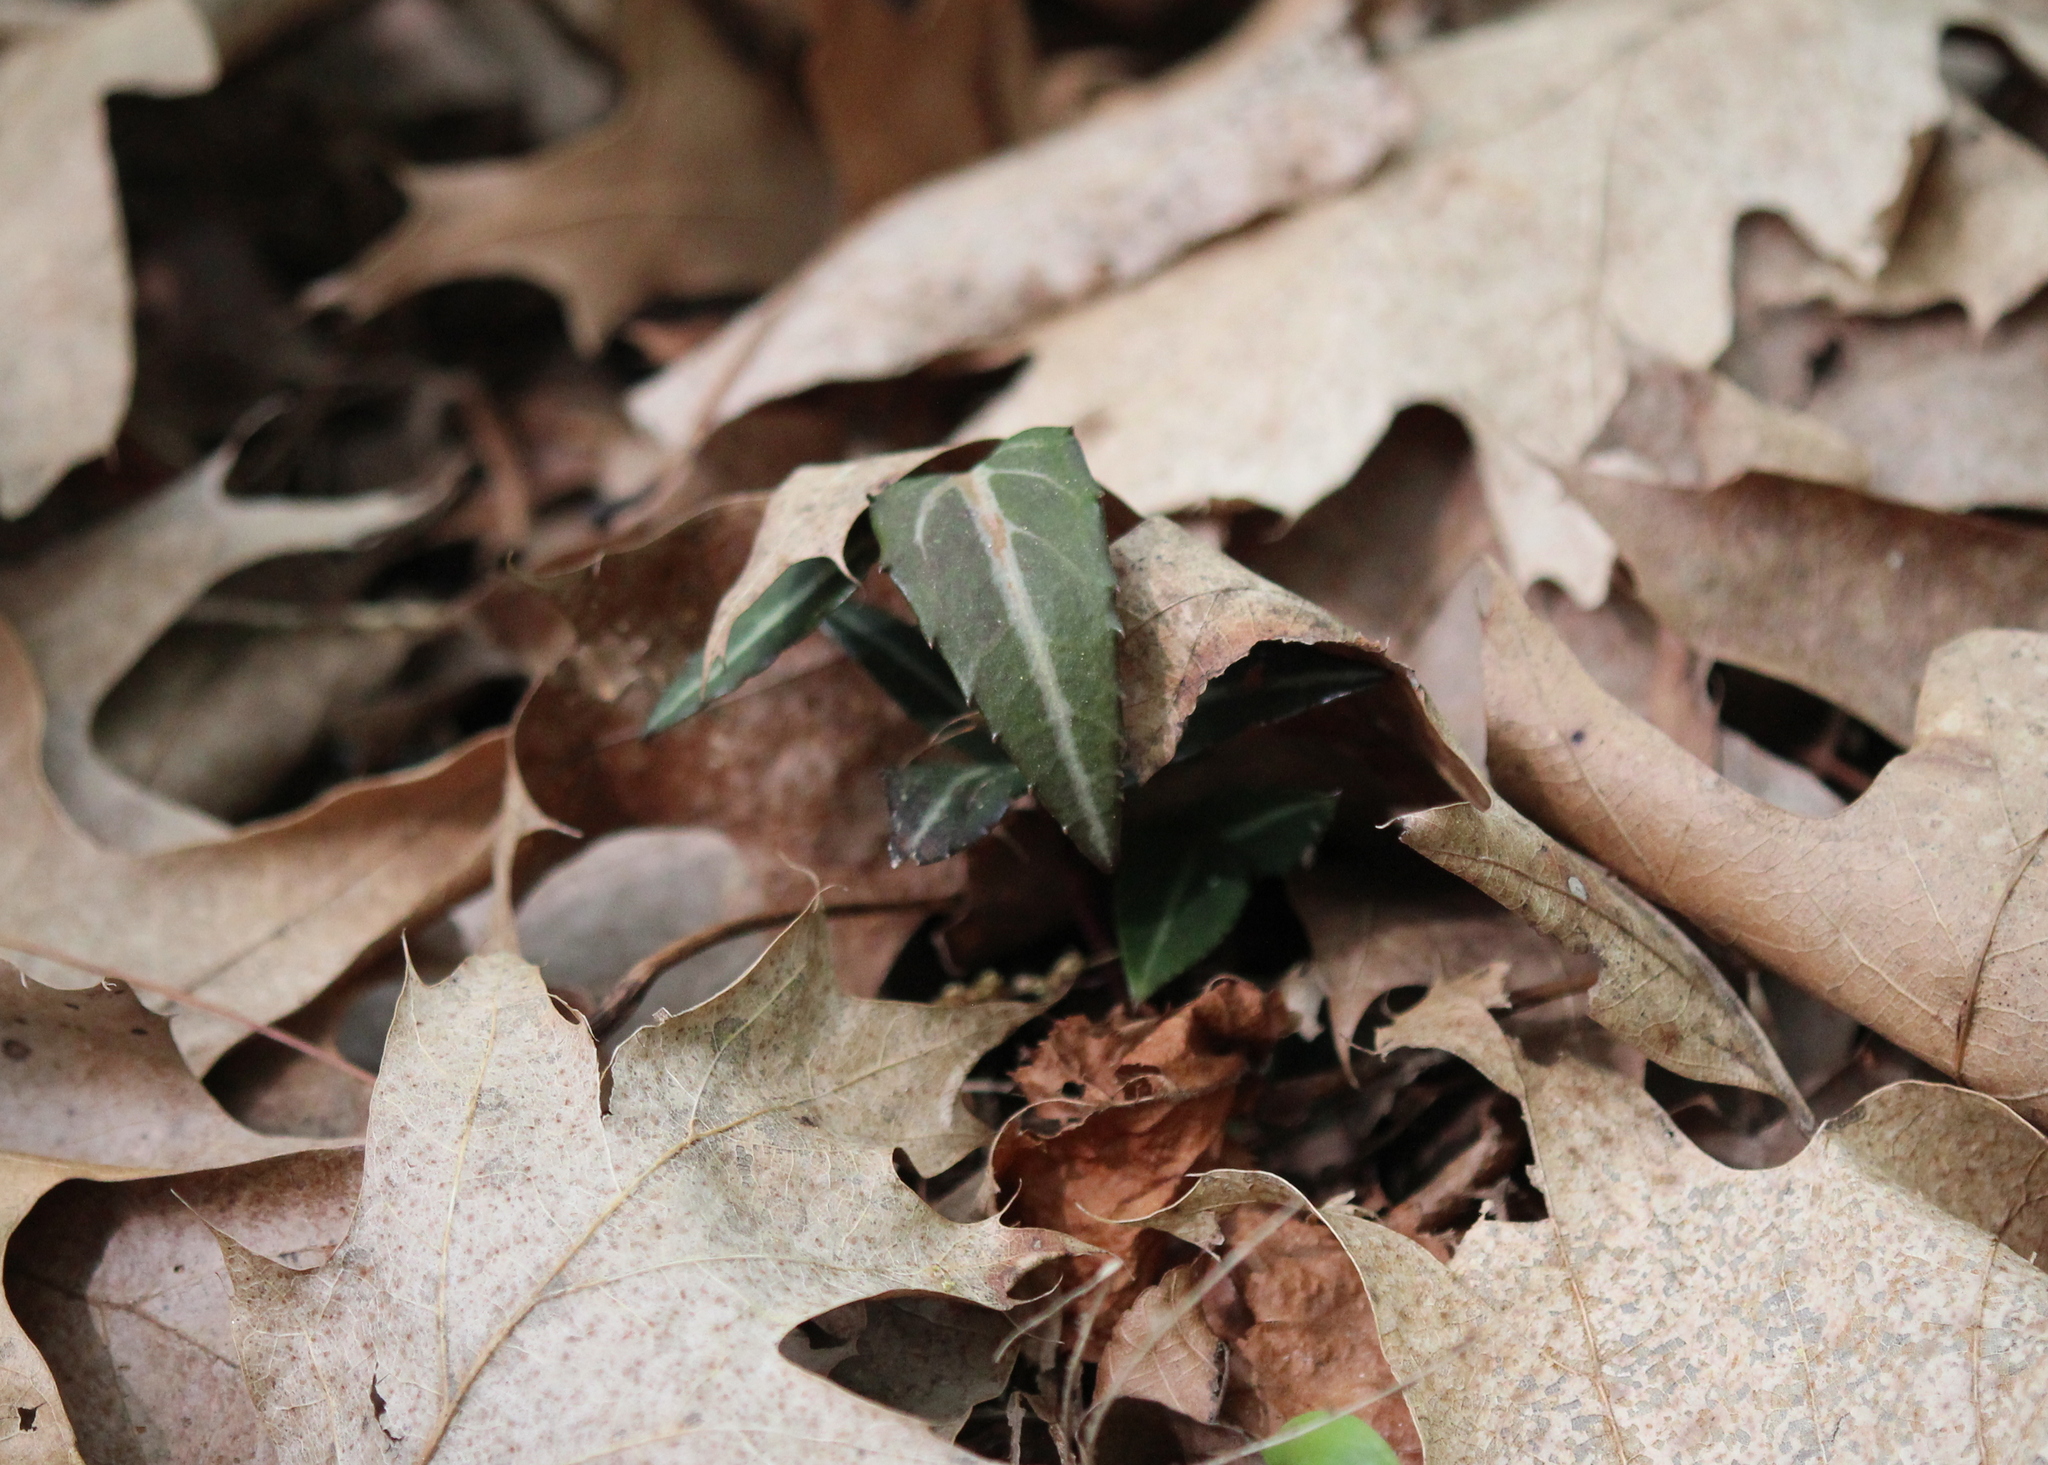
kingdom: Plantae
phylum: Tracheophyta
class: Magnoliopsida
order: Ericales
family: Ericaceae
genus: Chimaphila
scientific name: Chimaphila maculata
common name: Spotted pipsissewa
